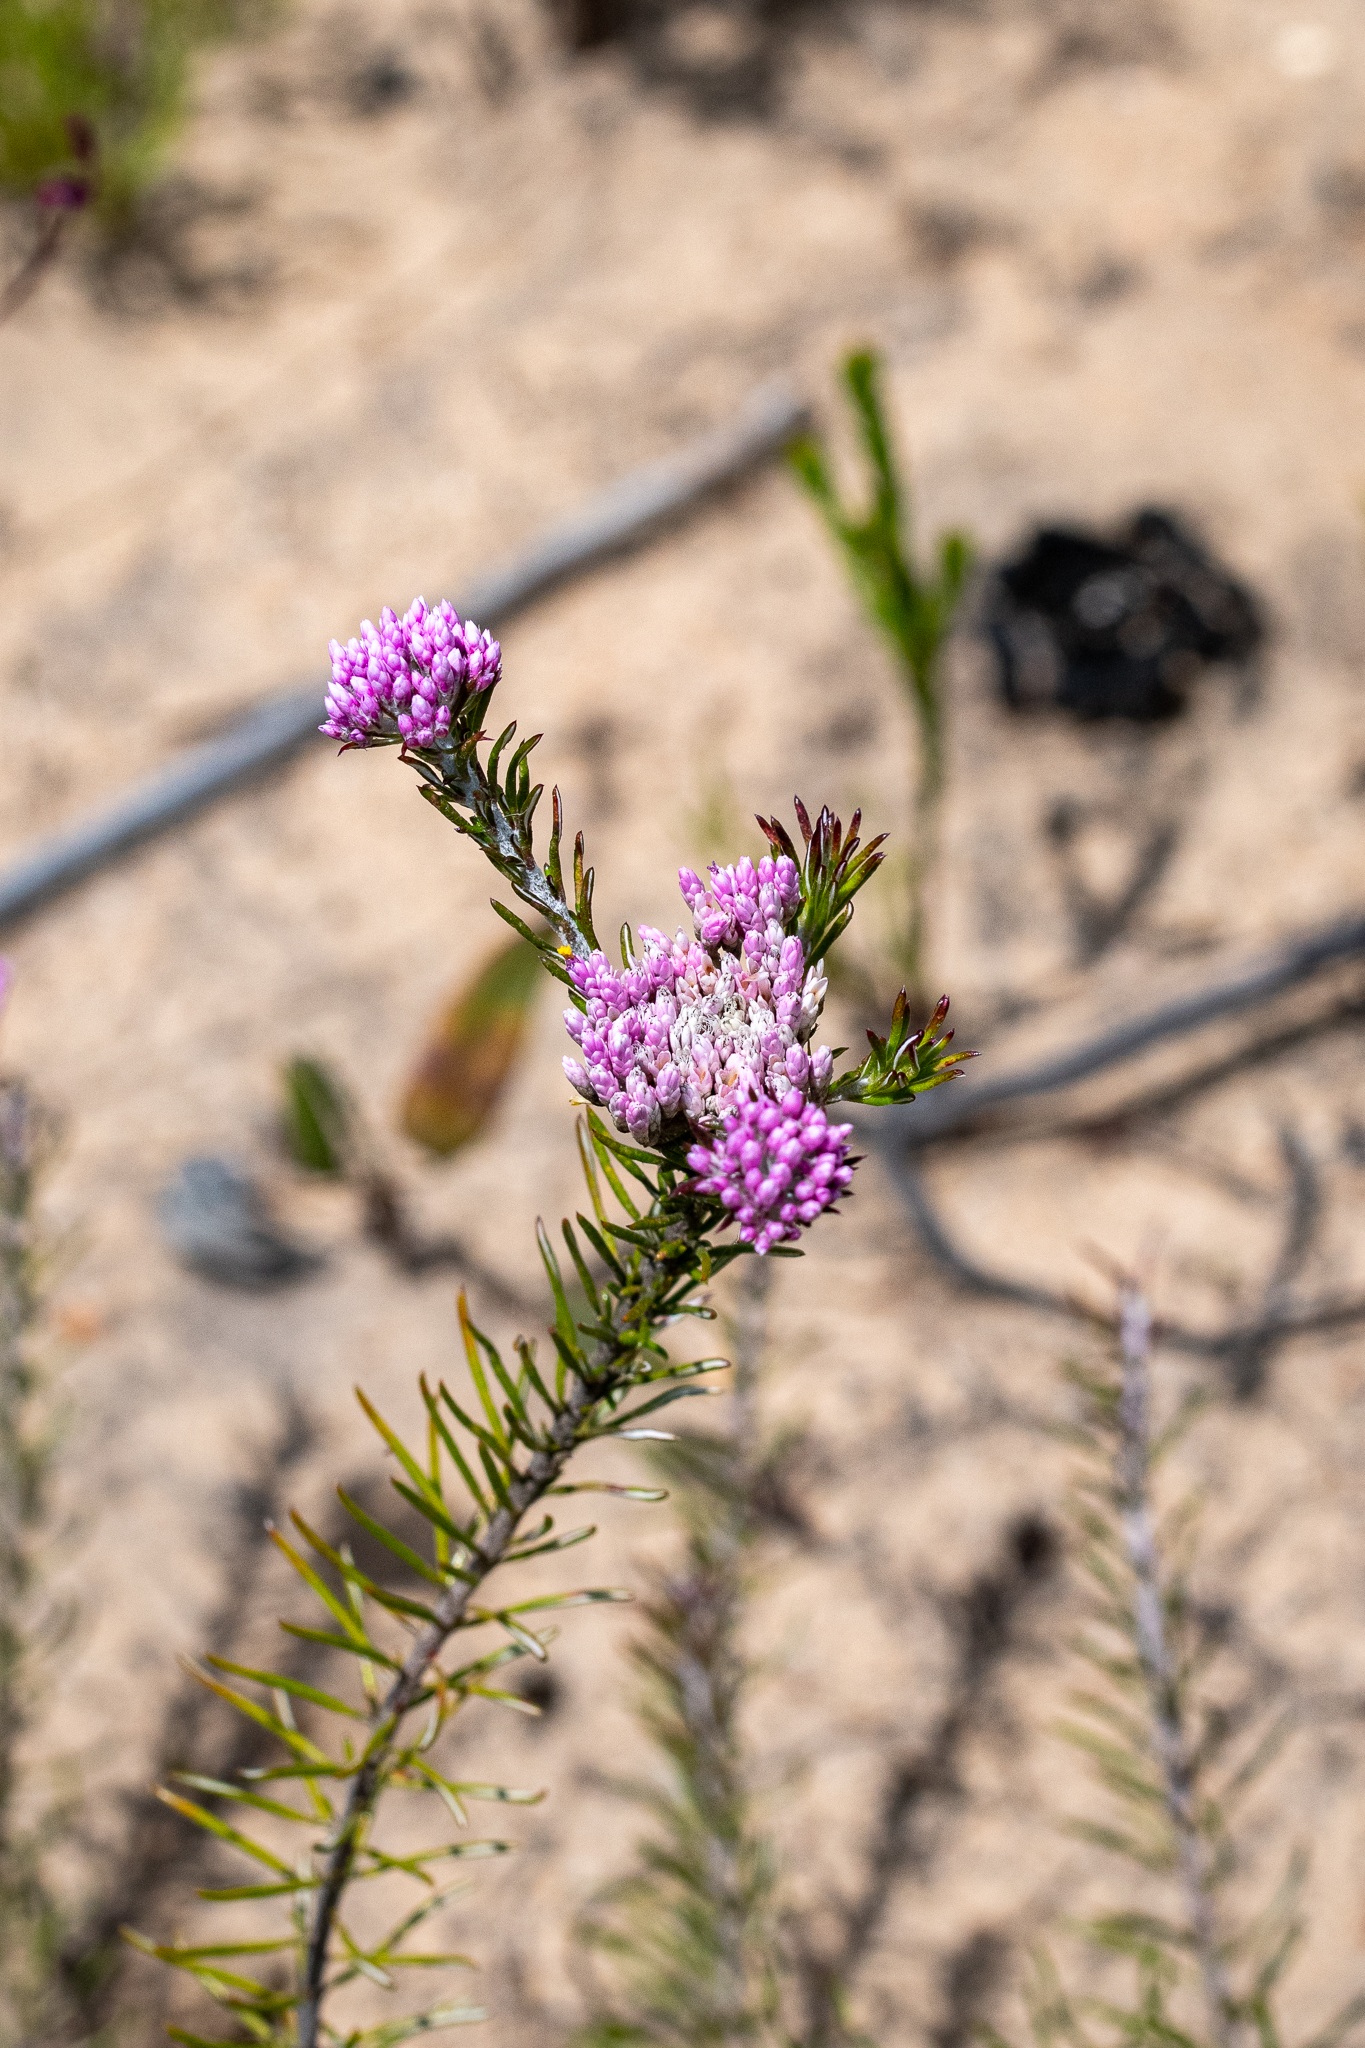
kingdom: Plantae
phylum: Tracheophyta
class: Magnoliopsida
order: Asterales
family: Asteraceae
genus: Metalasia
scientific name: Metalasia erubescens
